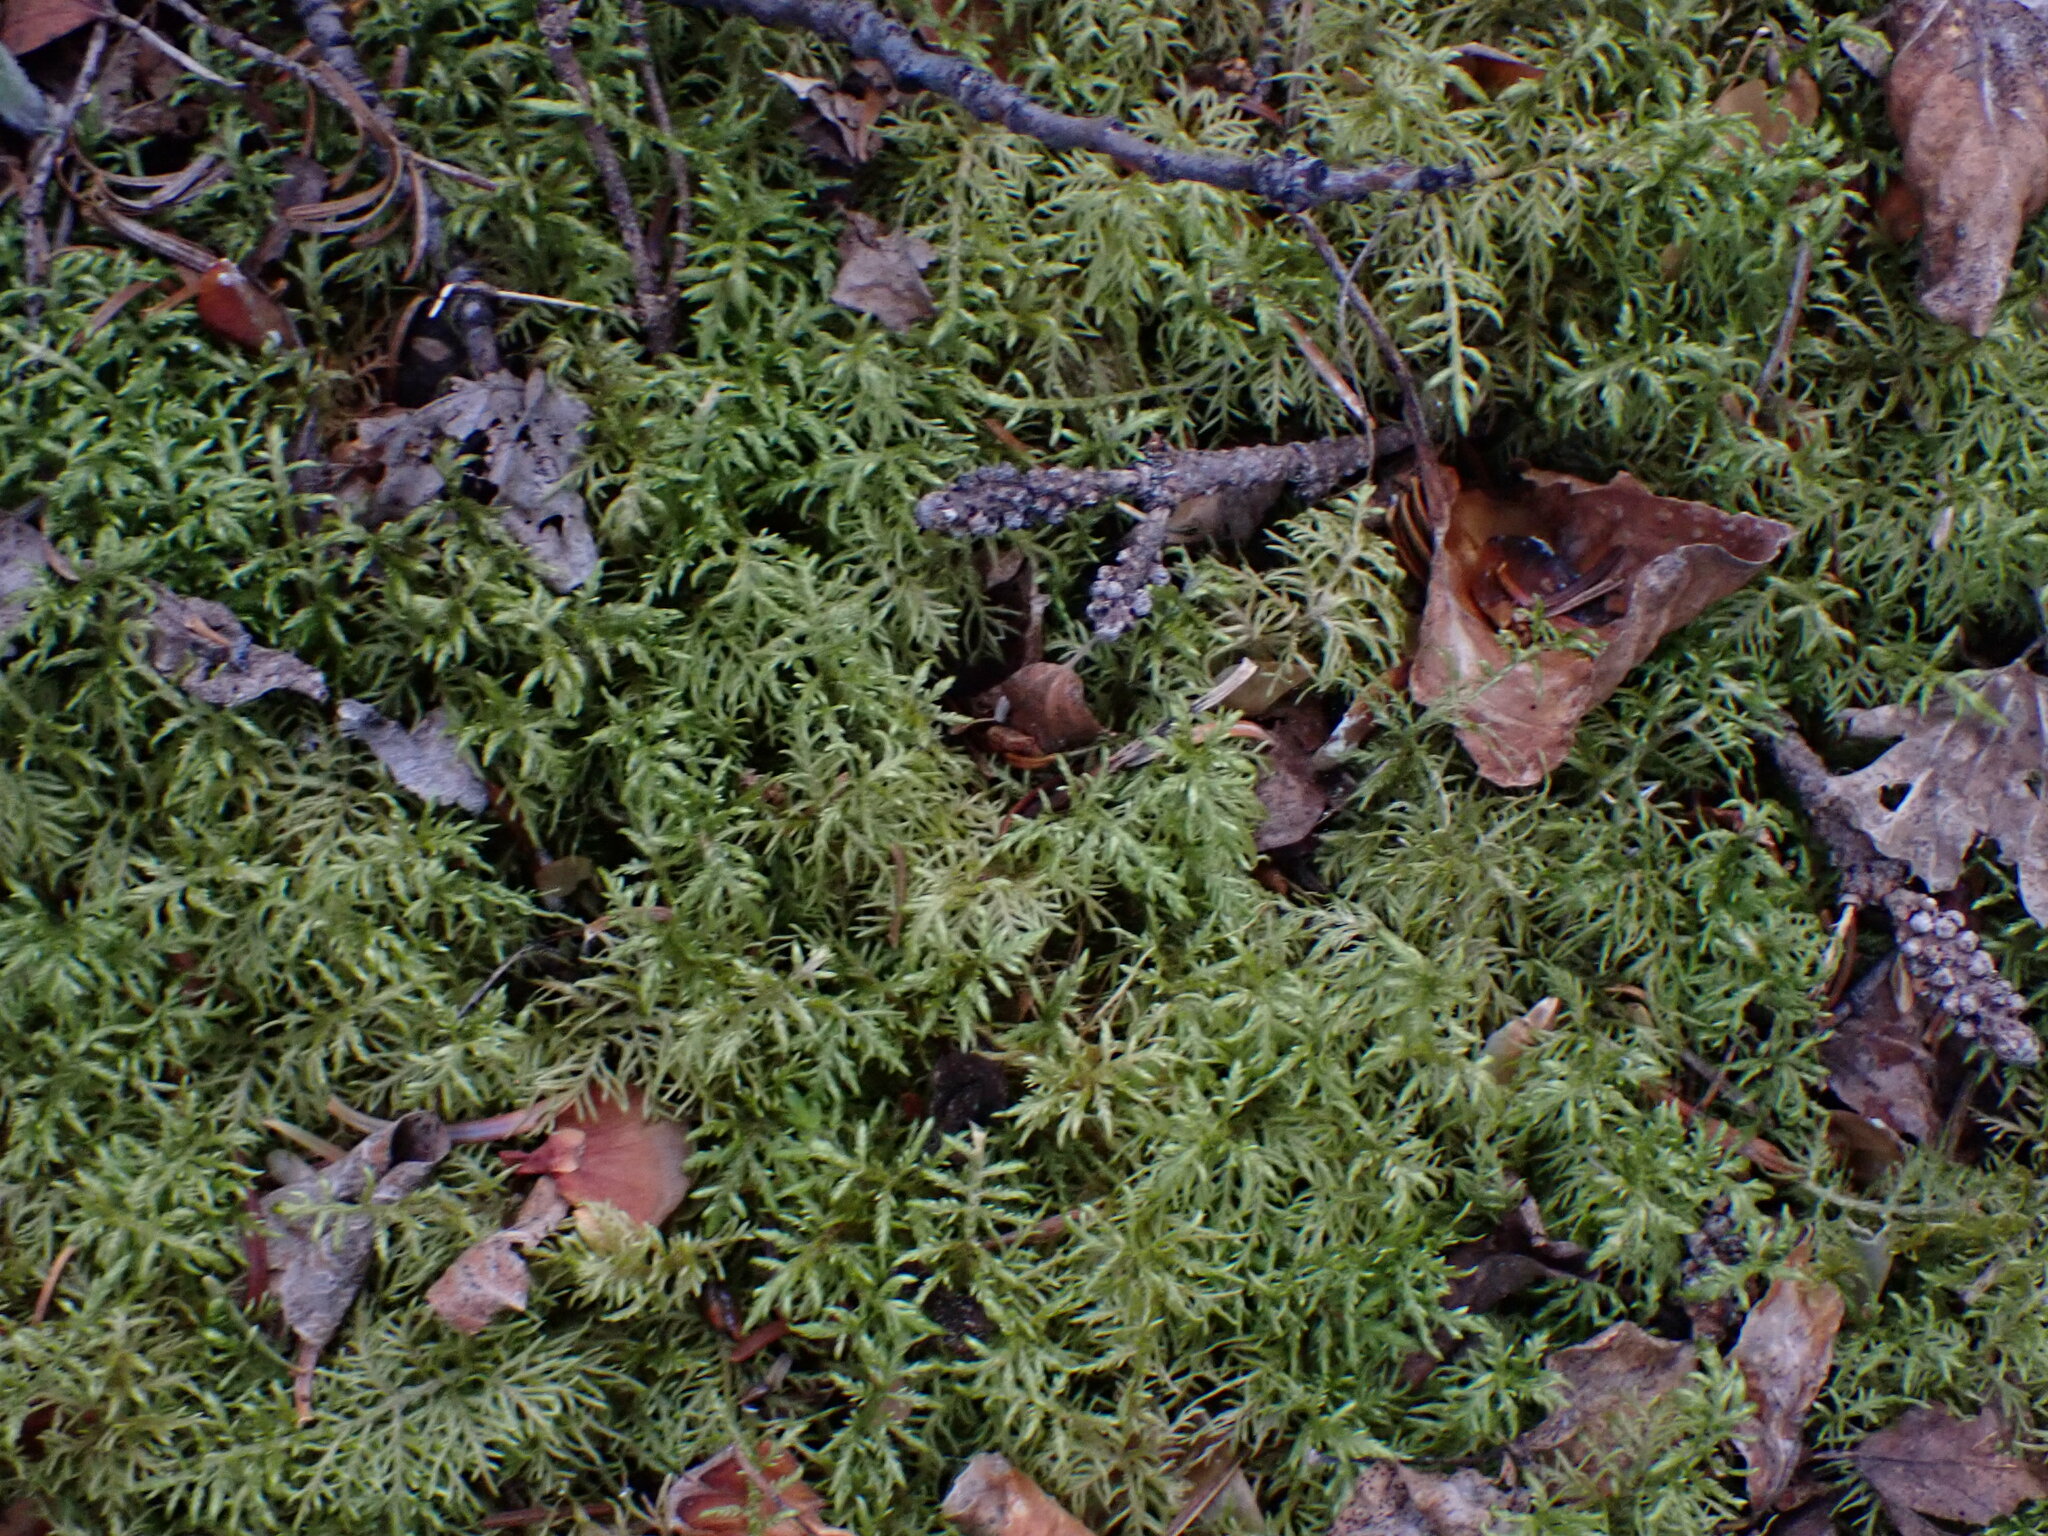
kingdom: Plantae
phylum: Bryophyta
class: Bryopsida
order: Hypnales
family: Hylocomiaceae
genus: Hylocomium
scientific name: Hylocomium splendens
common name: Stairstep moss
